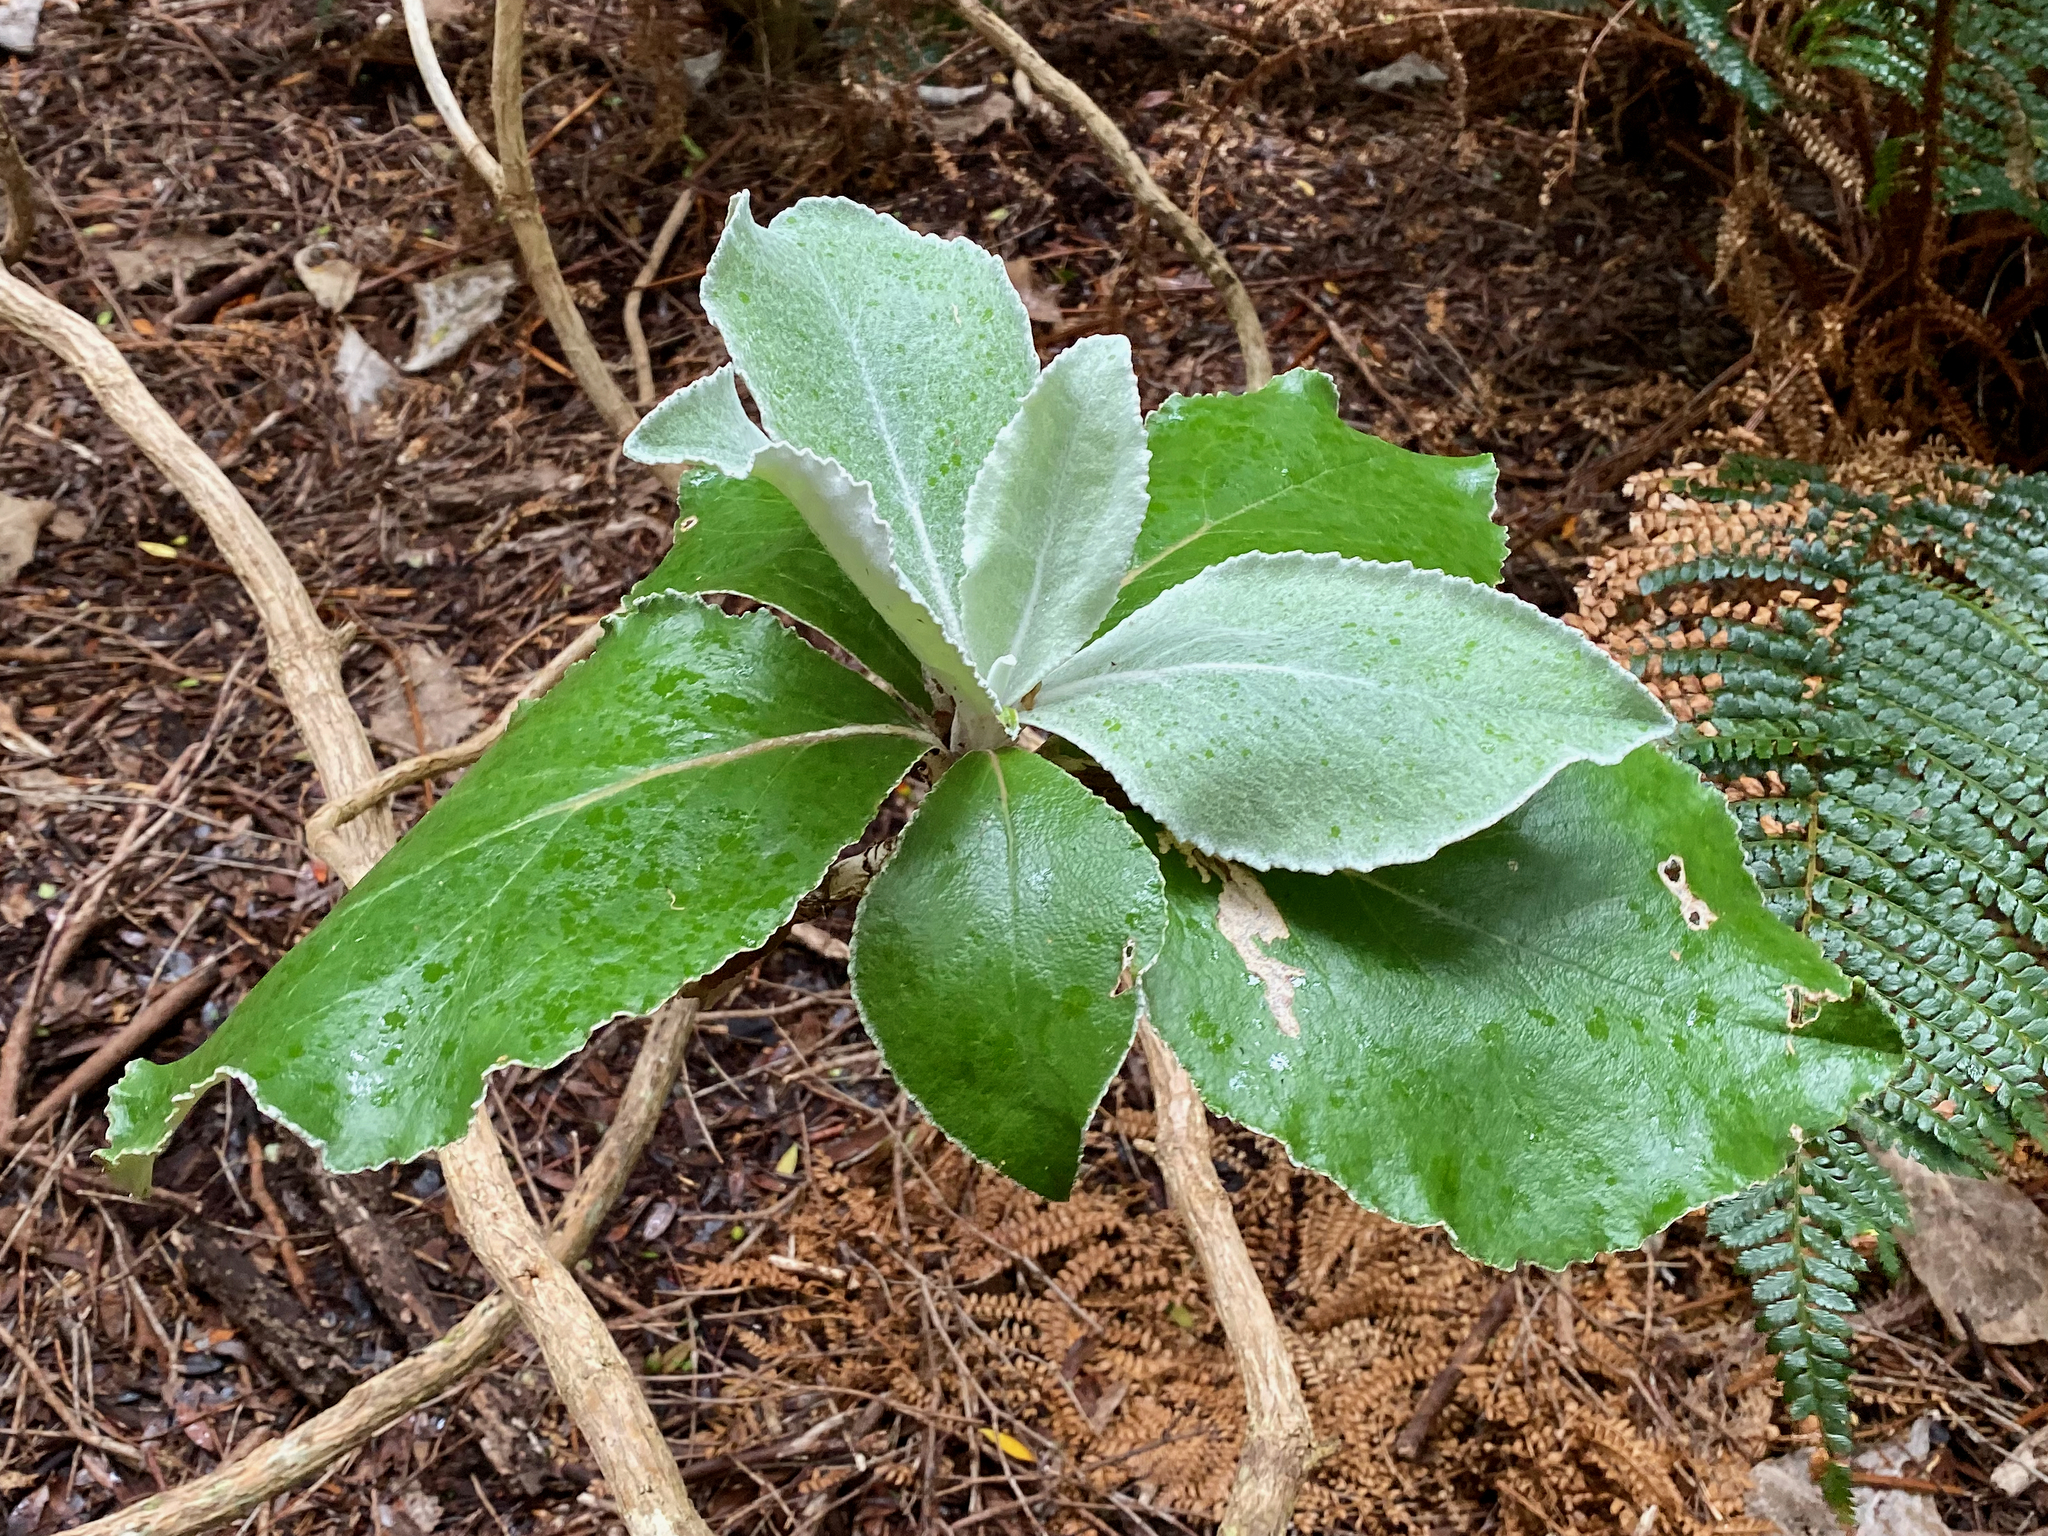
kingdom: Plantae
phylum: Tracheophyta
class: Magnoliopsida
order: Asterales
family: Asteraceae
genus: Macrolearia
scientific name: Macrolearia lyallii
